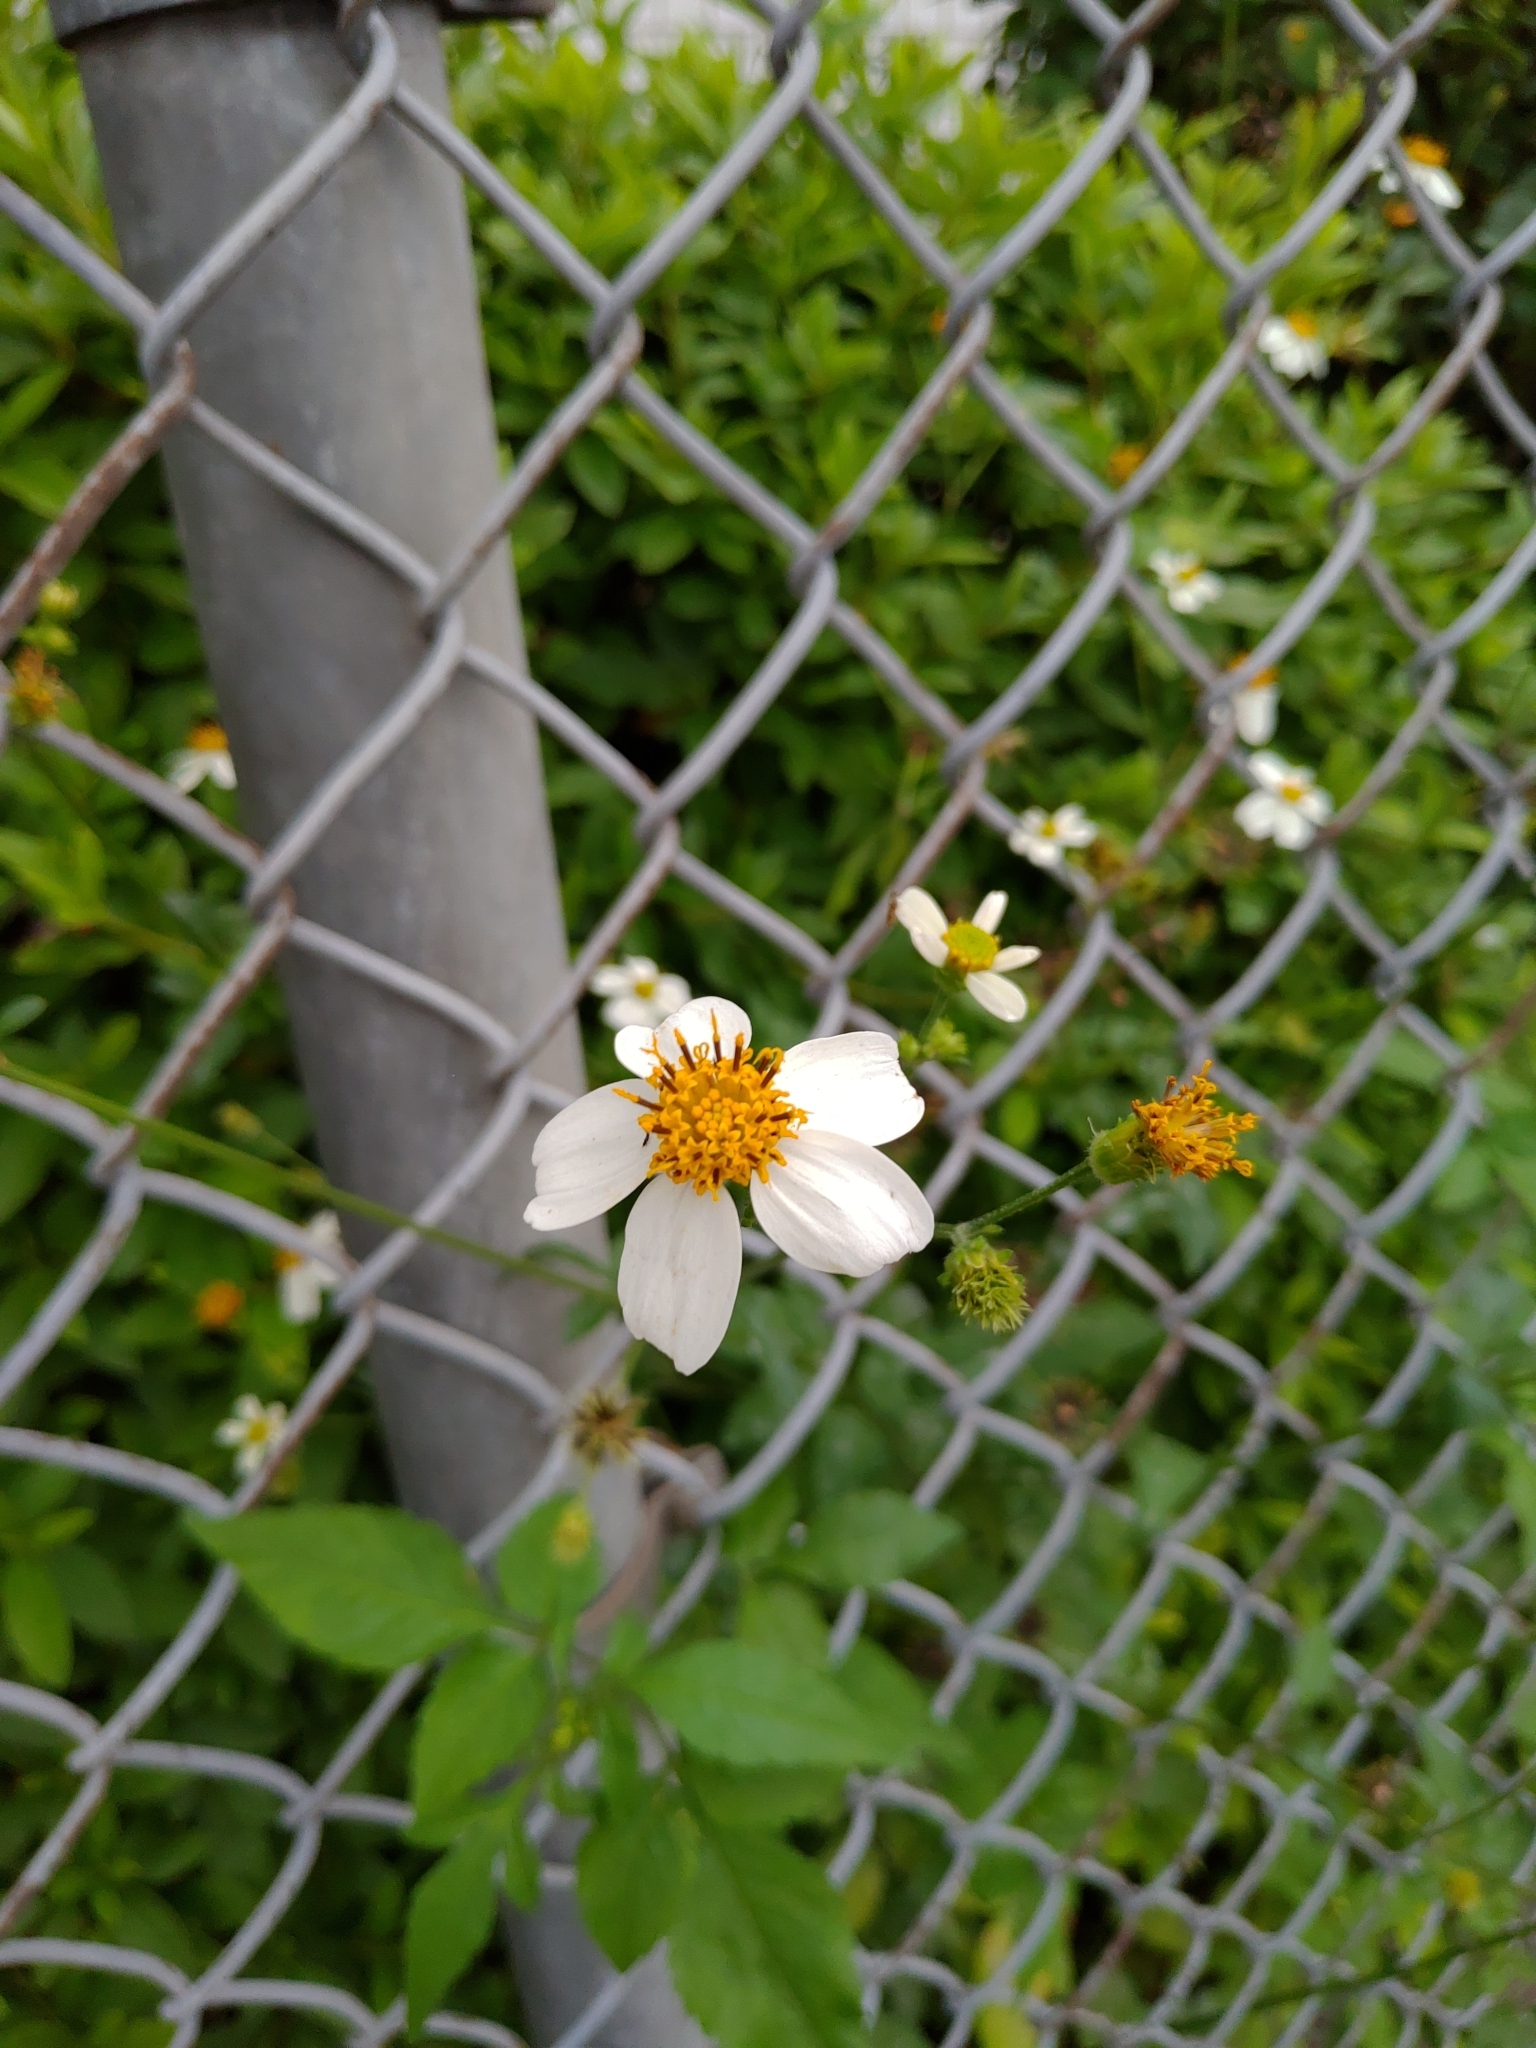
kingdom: Plantae
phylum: Tracheophyta
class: Magnoliopsida
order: Asterales
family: Asteraceae
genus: Bidens
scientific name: Bidens alba
